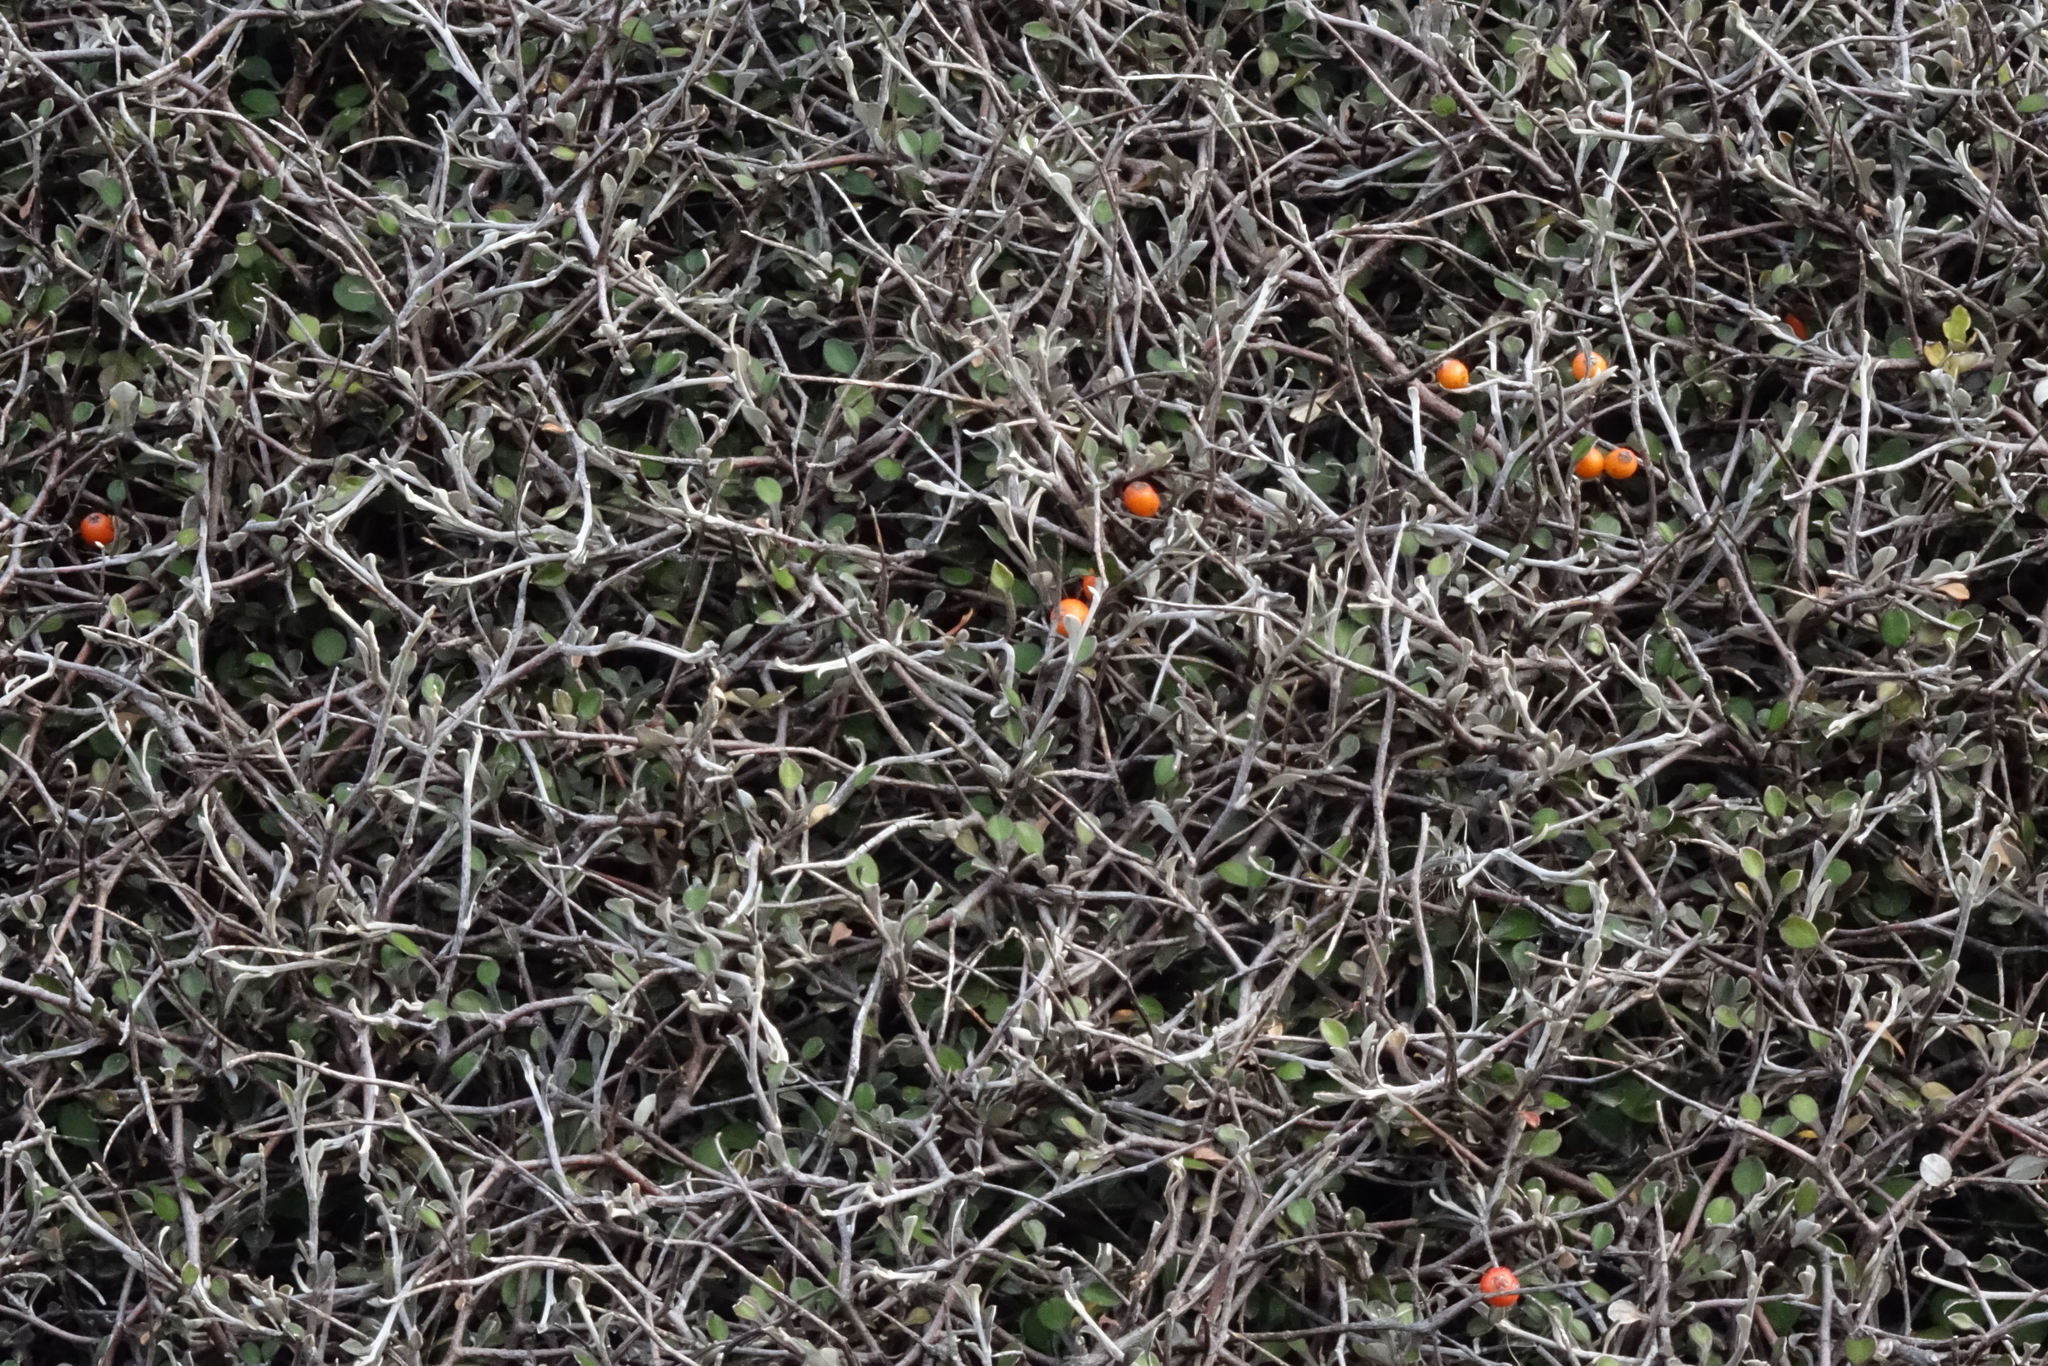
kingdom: Plantae
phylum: Tracheophyta
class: Magnoliopsida
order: Asterales
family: Argophyllaceae
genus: Corokia
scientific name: Corokia cotoneaster
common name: Wire nettingbush
